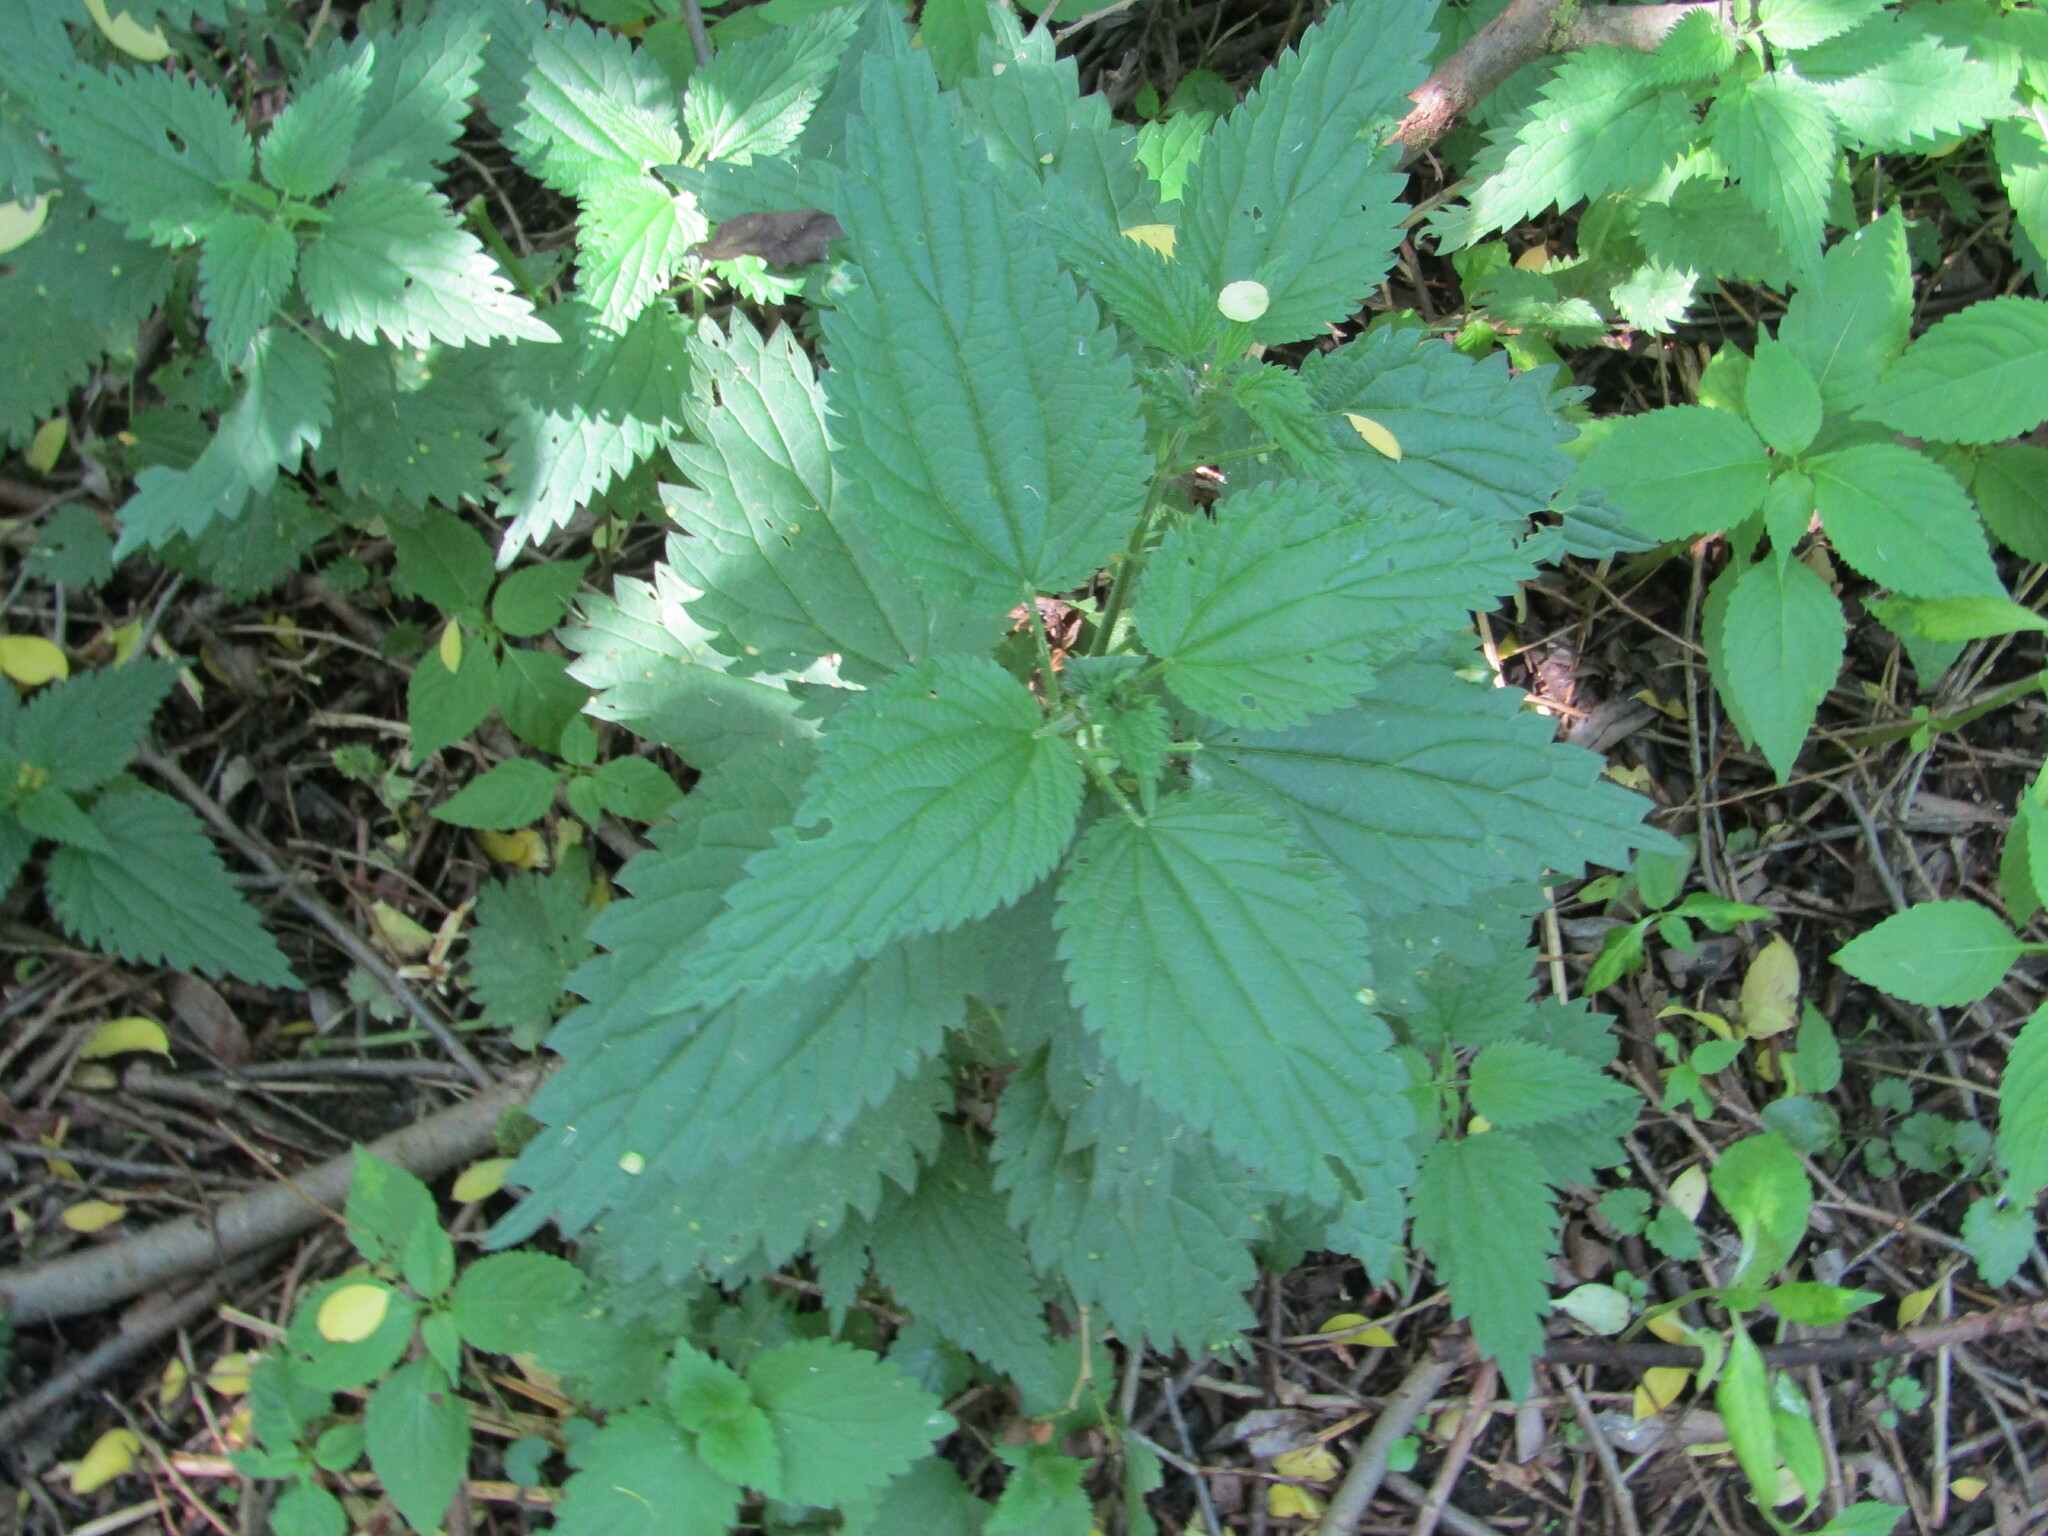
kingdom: Plantae
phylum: Tracheophyta
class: Magnoliopsida
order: Rosales
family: Urticaceae
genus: Urtica
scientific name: Urtica dioica
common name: Common nettle
